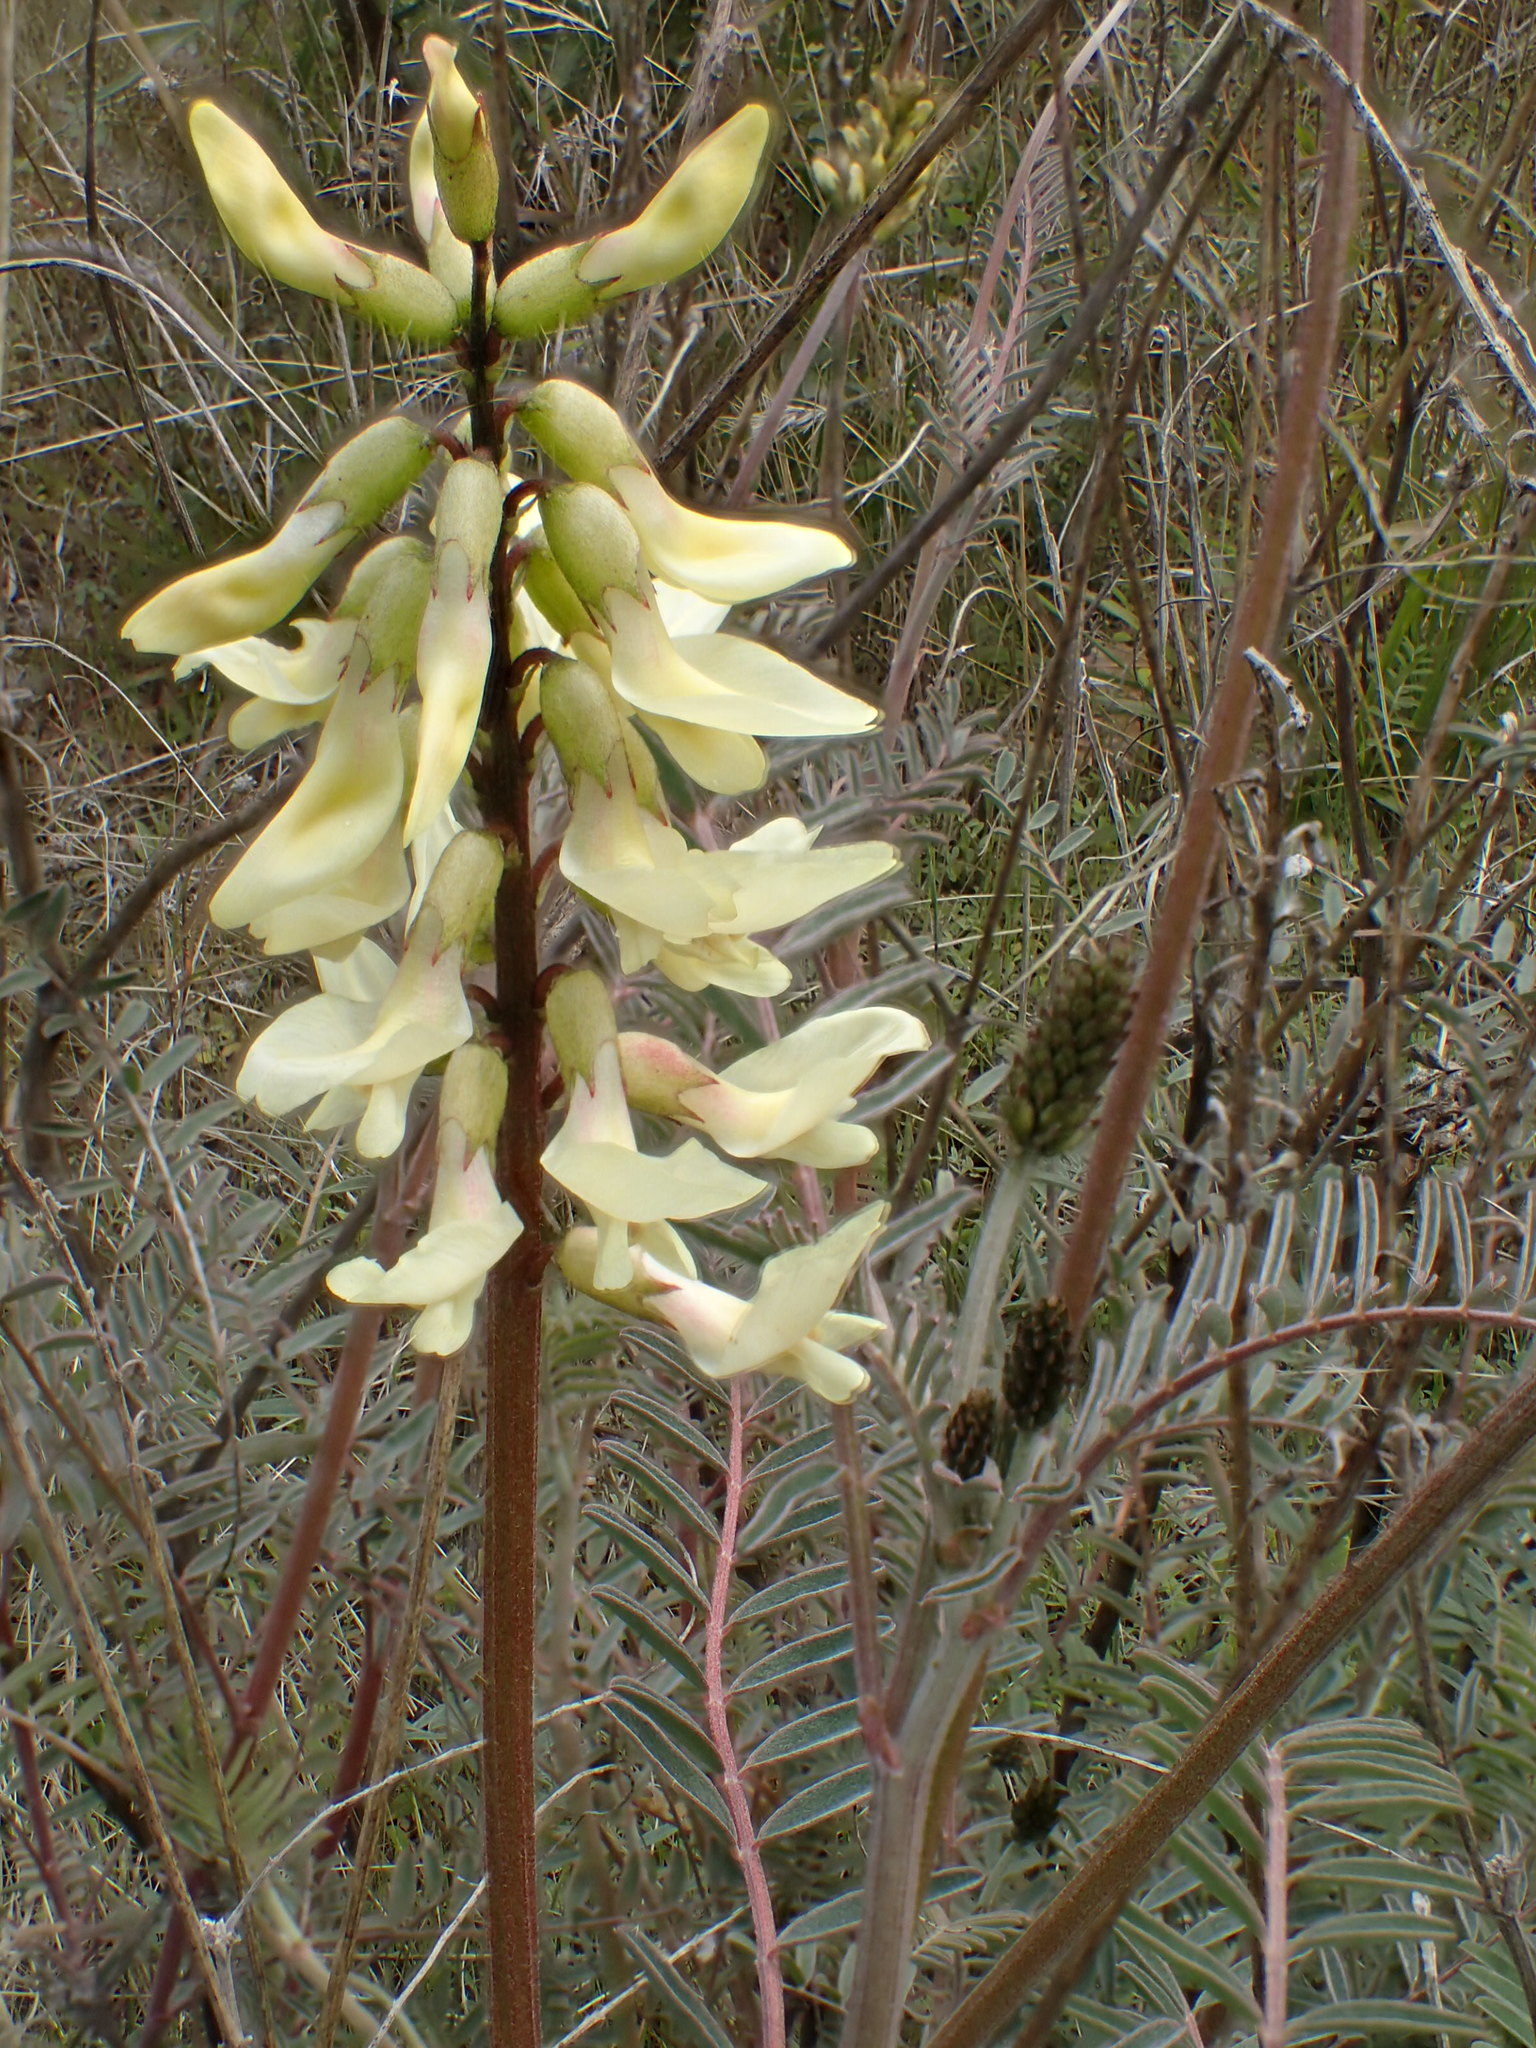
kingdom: Plantae
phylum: Tracheophyta
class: Magnoliopsida
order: Fabales
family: Fabaceae
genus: Astragalus
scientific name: Astragalus trichopodus
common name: Santa barbara milk-vetch
